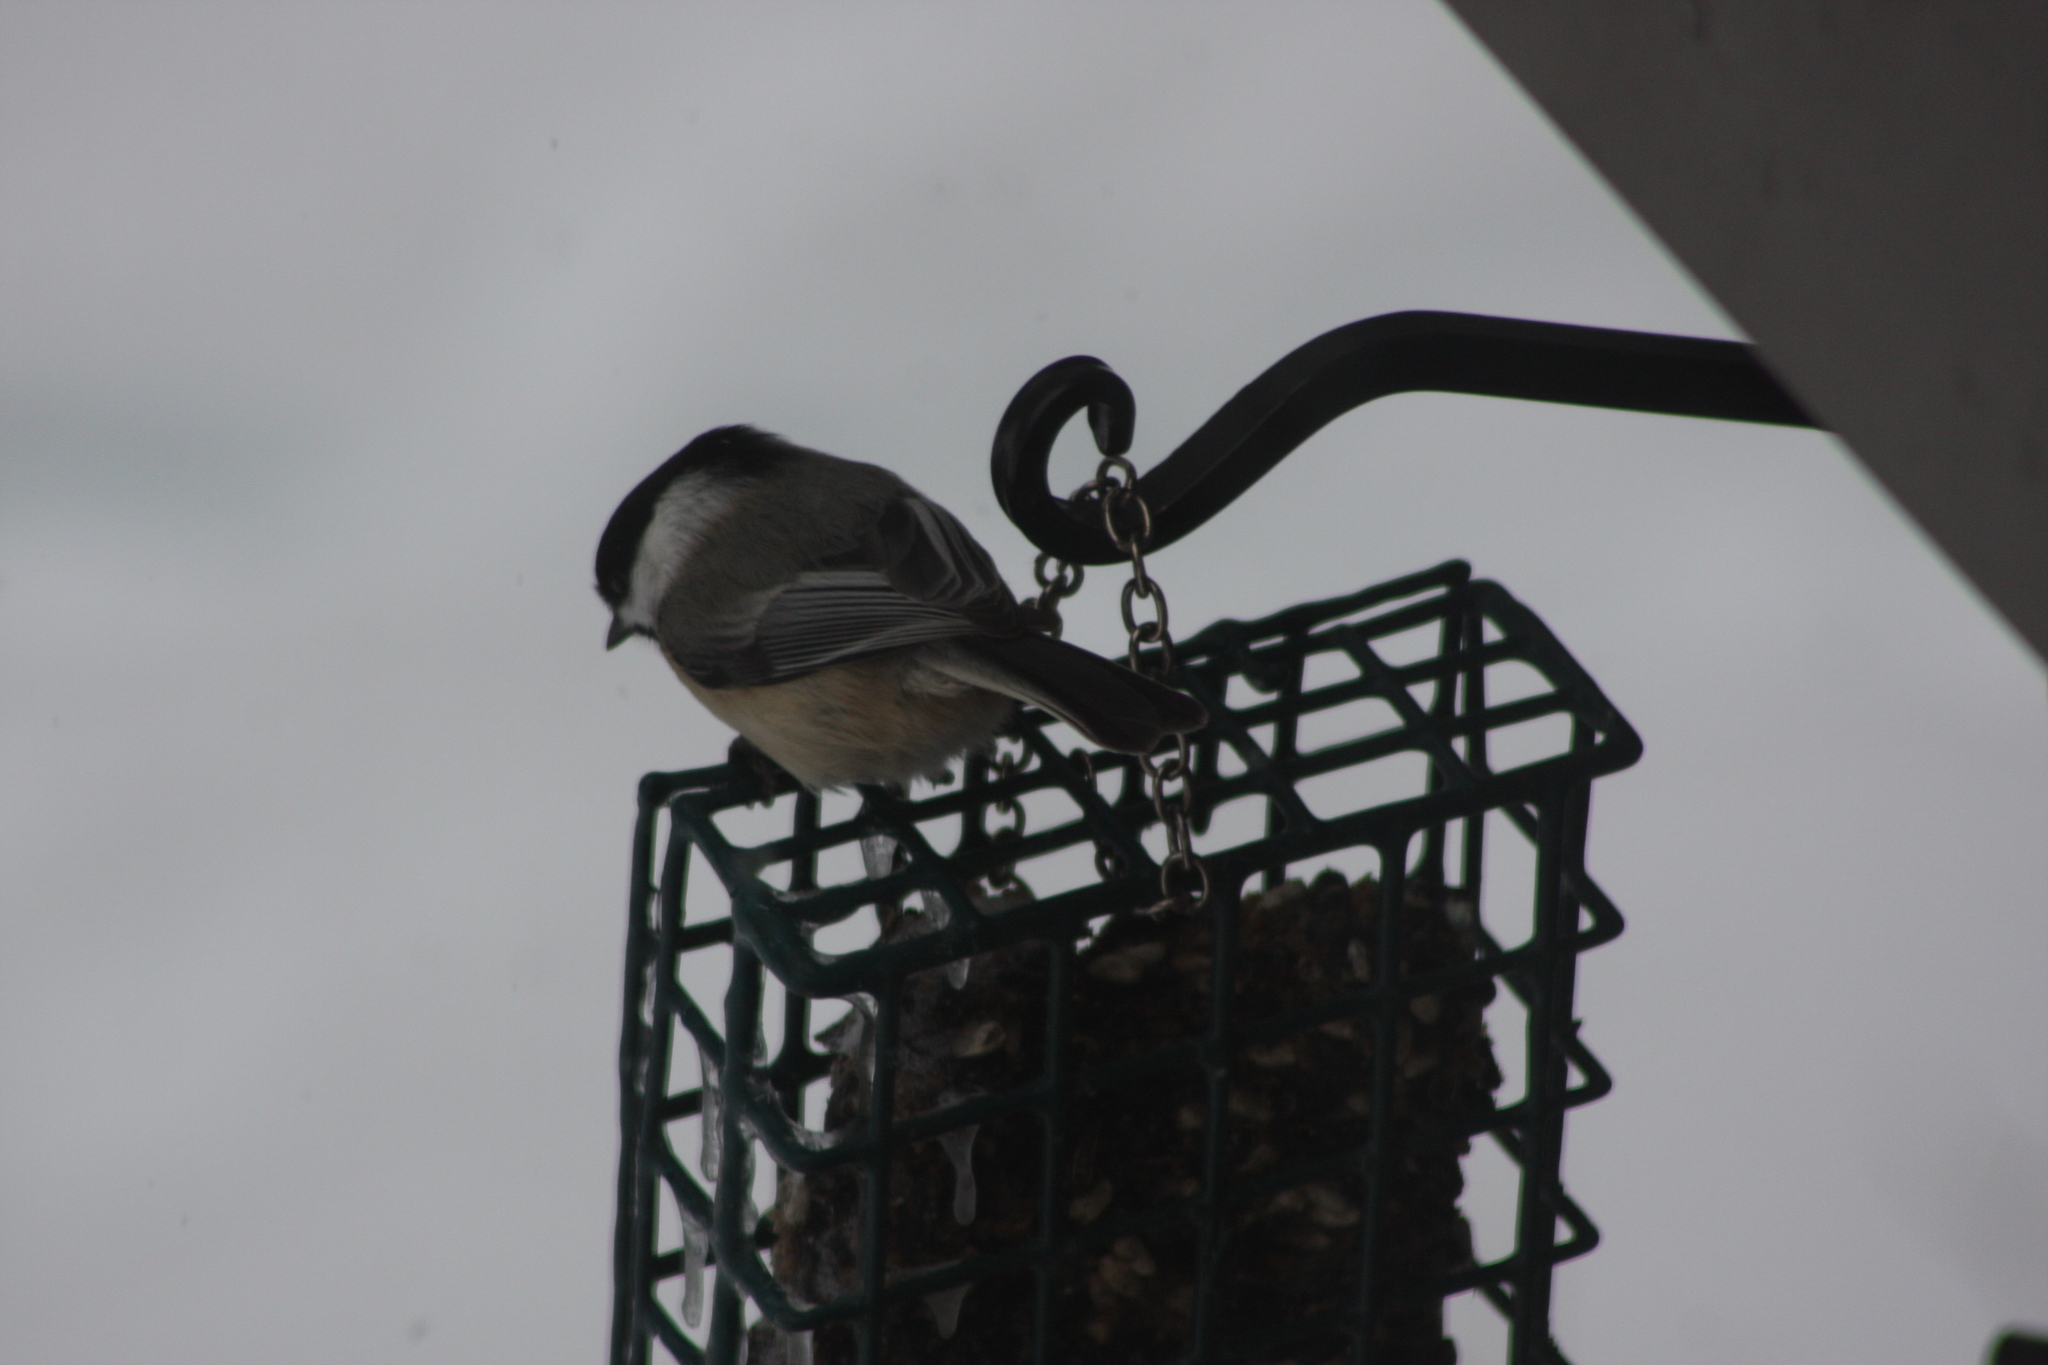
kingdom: Animalia
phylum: Chordata
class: Aves
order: Passeriformes
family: Paridae
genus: Poecile
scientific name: Poecile atricapillus
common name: Black-capped chickadee
